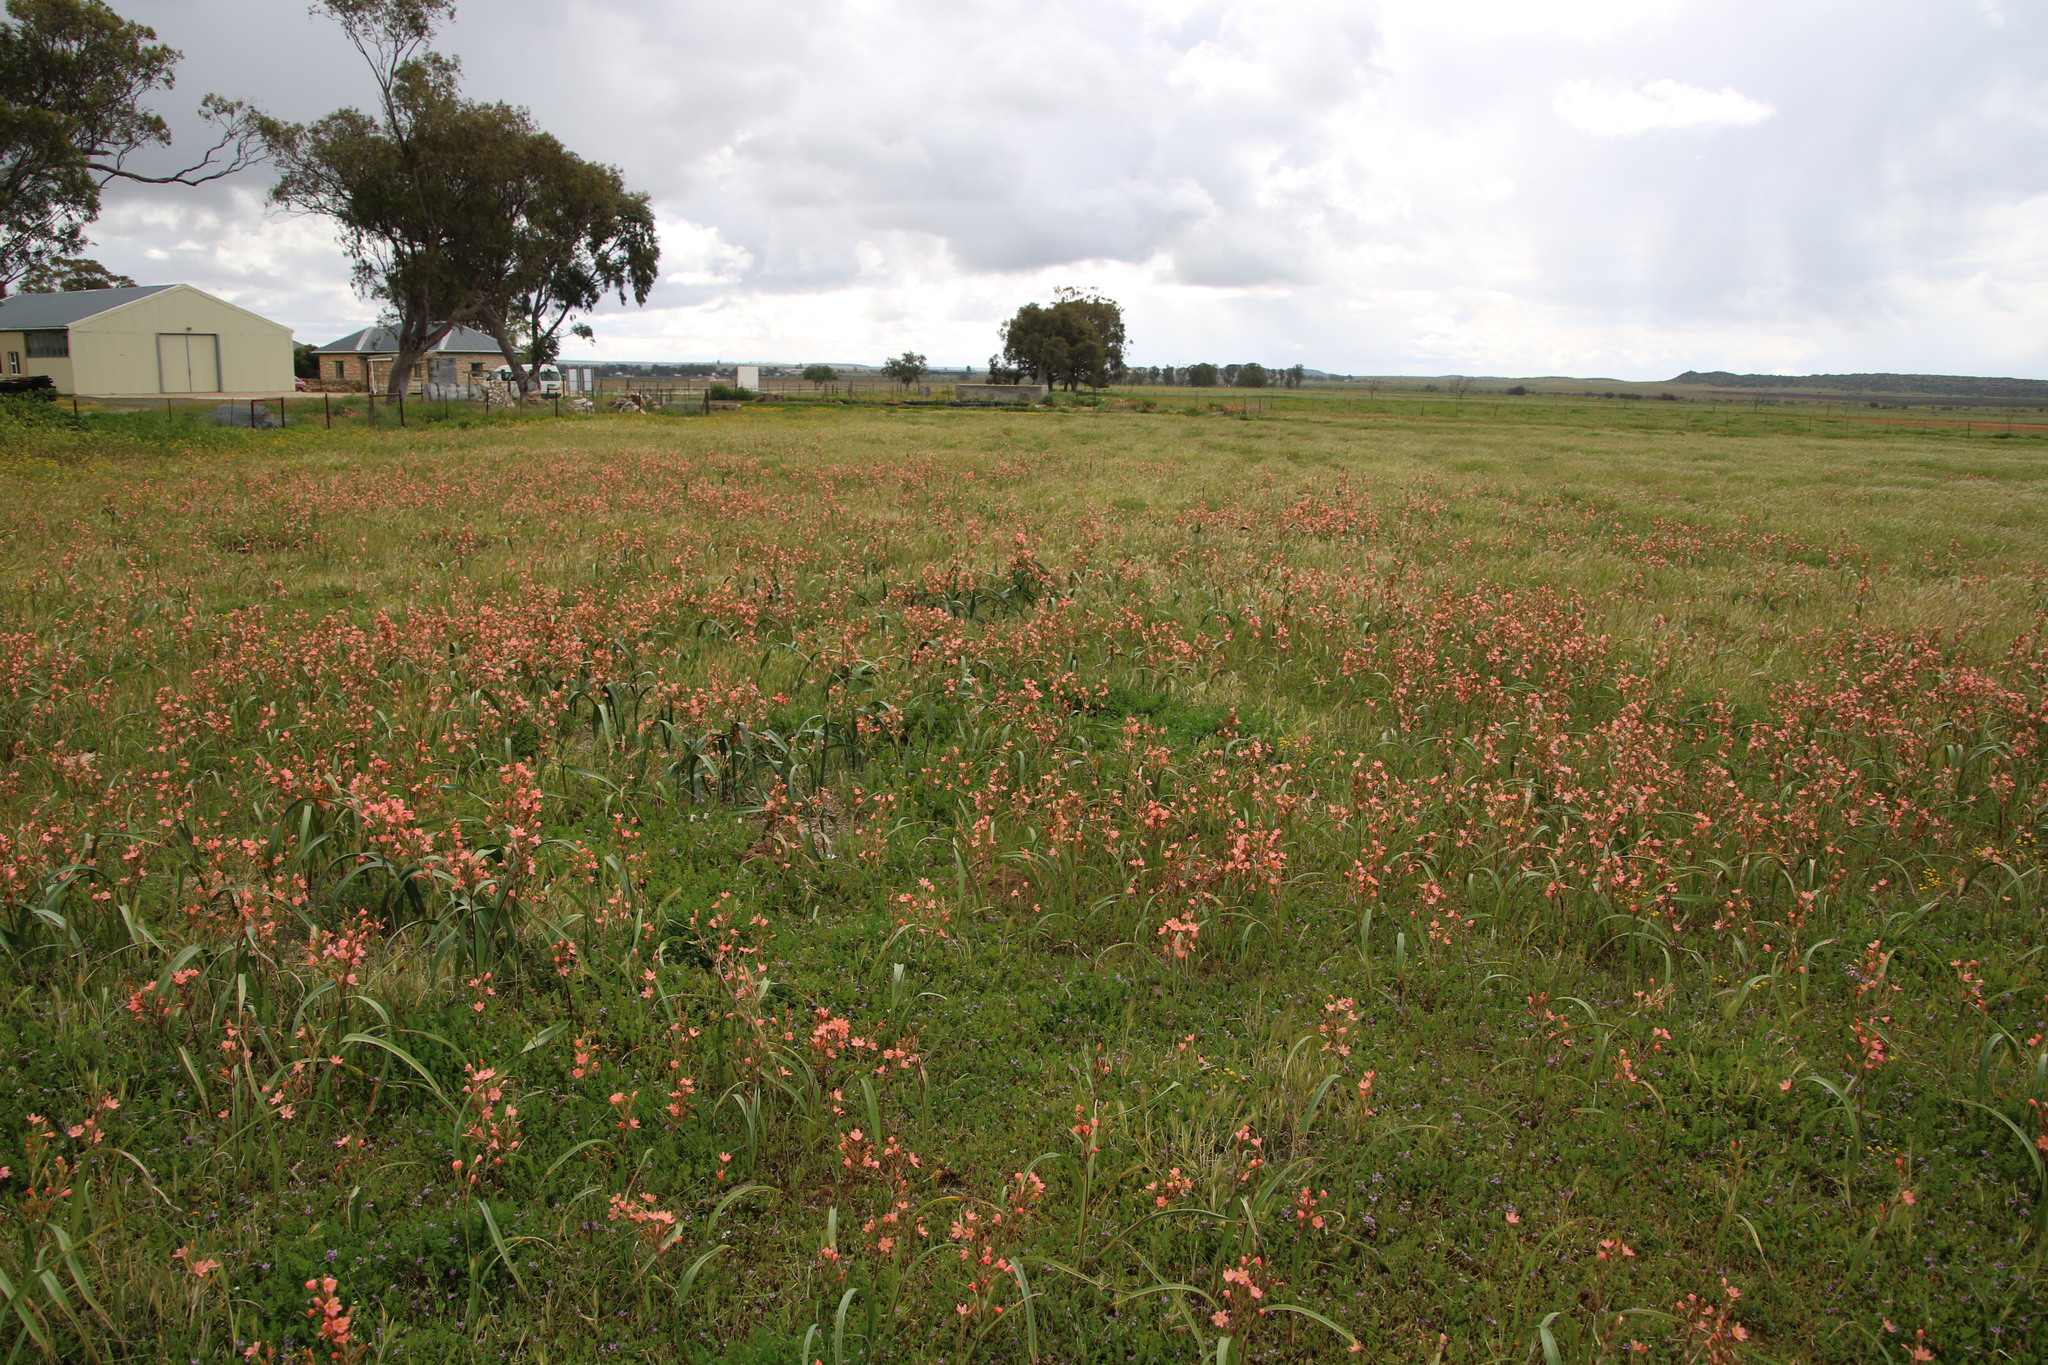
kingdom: Plantae
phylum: Tracheophyta
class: Liliopsida
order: Asparagales
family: Iridaceae
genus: Moraea
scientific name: Moraea miniata
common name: Two-leaf cape-tulip
